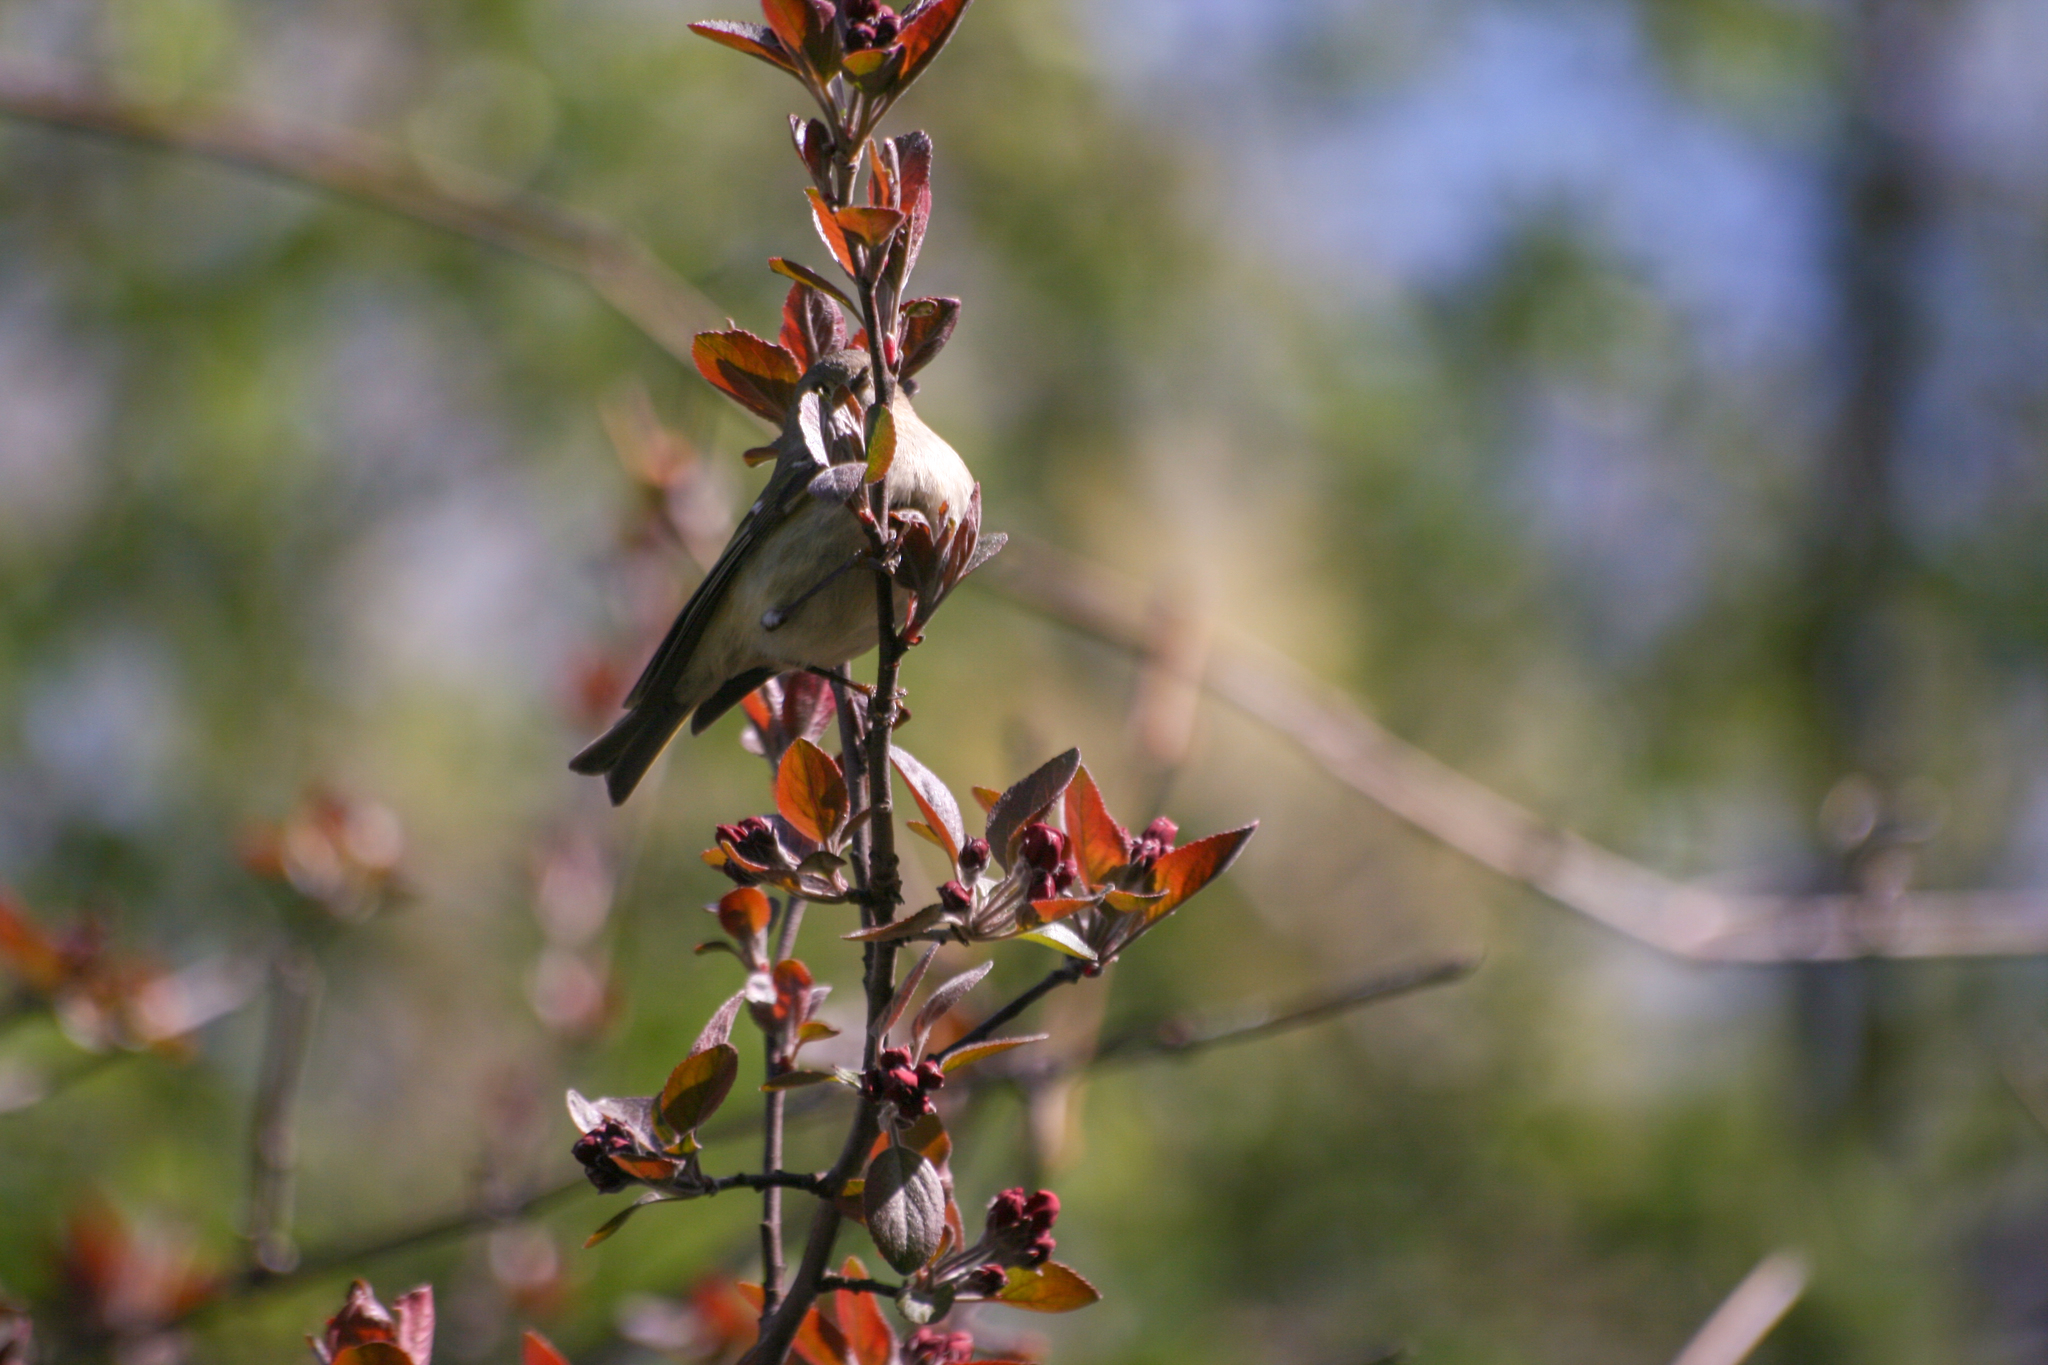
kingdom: Animalia
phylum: Chordata
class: Aves
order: Passeriformes
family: Regulidae
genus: Regulus
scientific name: Regulus calendula
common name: Ruby-crowned kinglet
